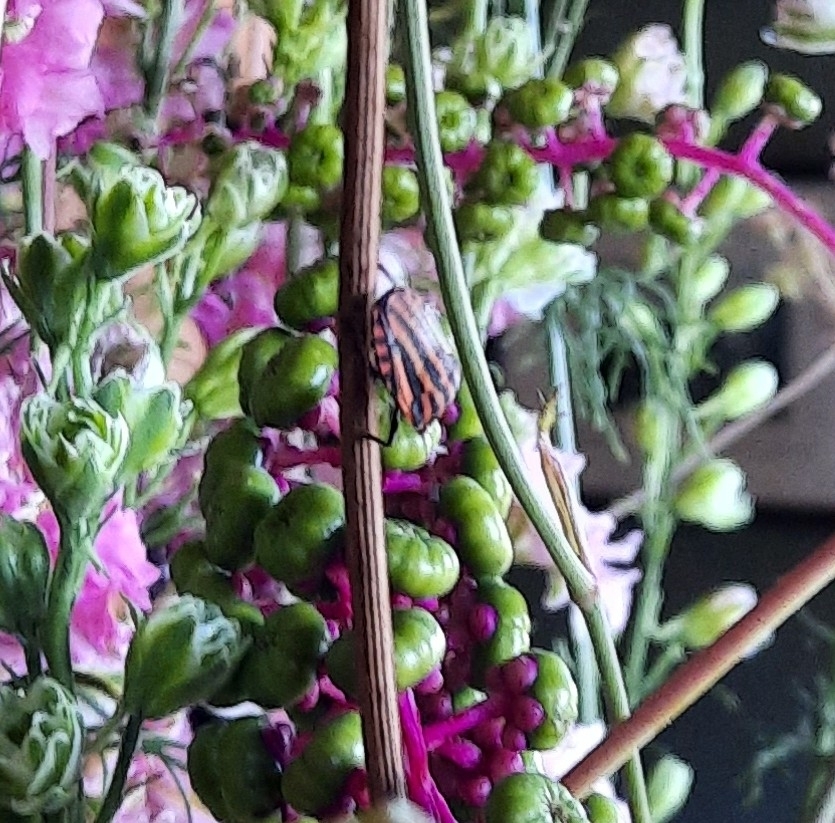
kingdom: Animalia
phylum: Arthropoda
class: Insecta
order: Hemiptera
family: Pentatomidae
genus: Graphosoma
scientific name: Graphosoma italicum
